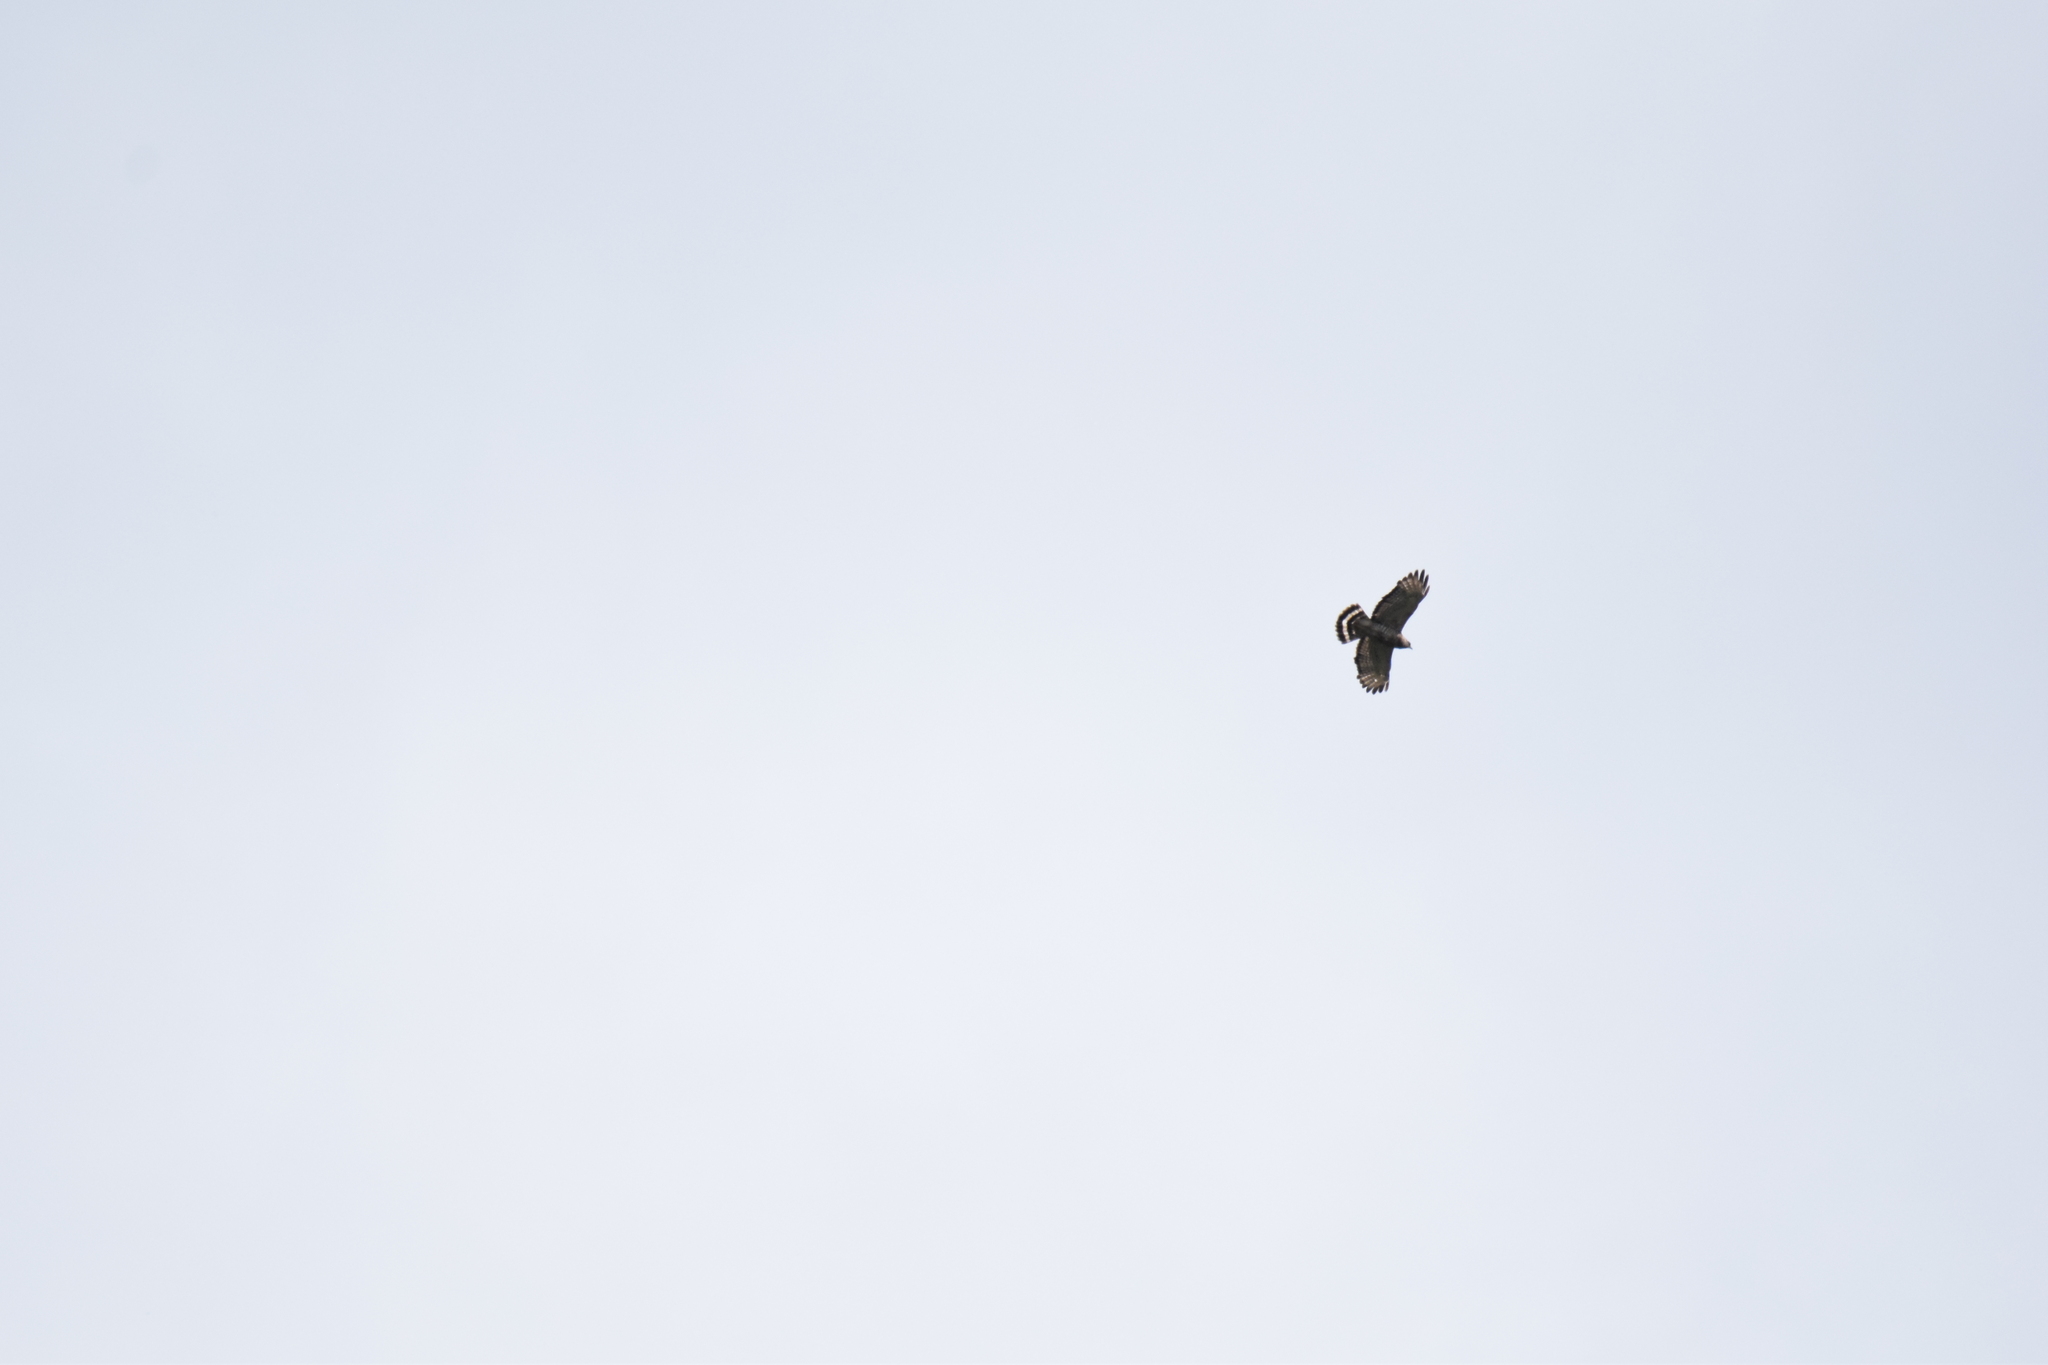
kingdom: Animalia
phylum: Chordata
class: Aves
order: Accipitriformes
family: Accipitridae
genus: Buteo
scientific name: Buteo platypterus
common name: Broad-winged hawk
